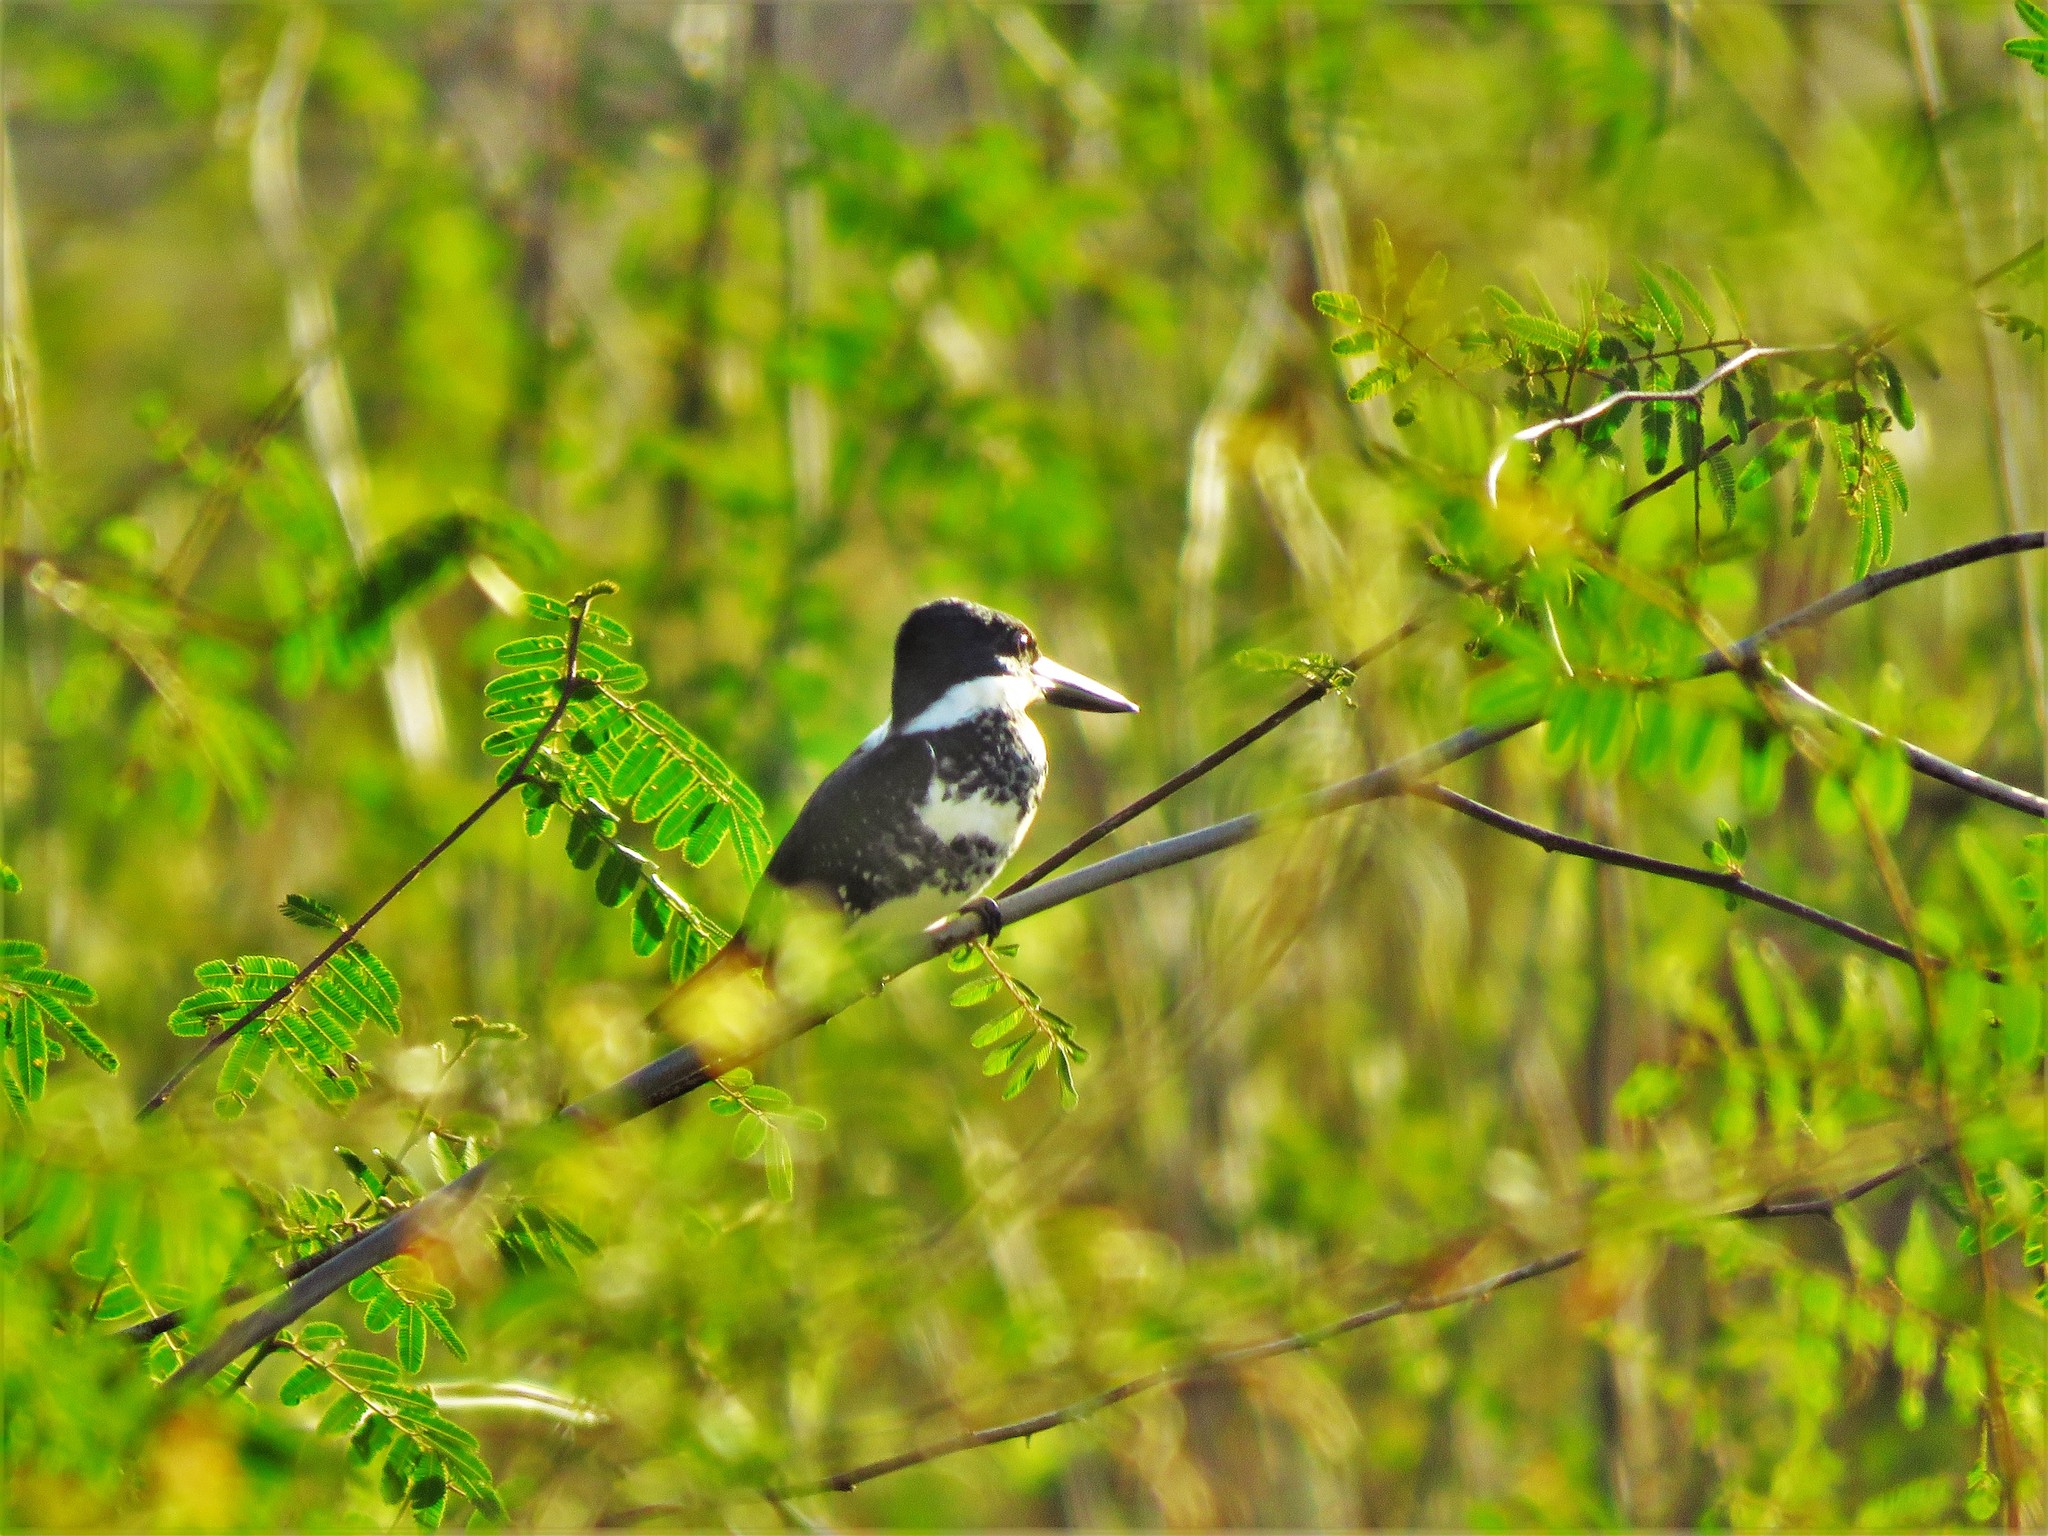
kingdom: Animalia
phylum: Chordata
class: Aves
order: Coraciiformes
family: Alcedinidae
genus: Chloroceryle
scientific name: Chloroceryle americana
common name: Green kingfisher
